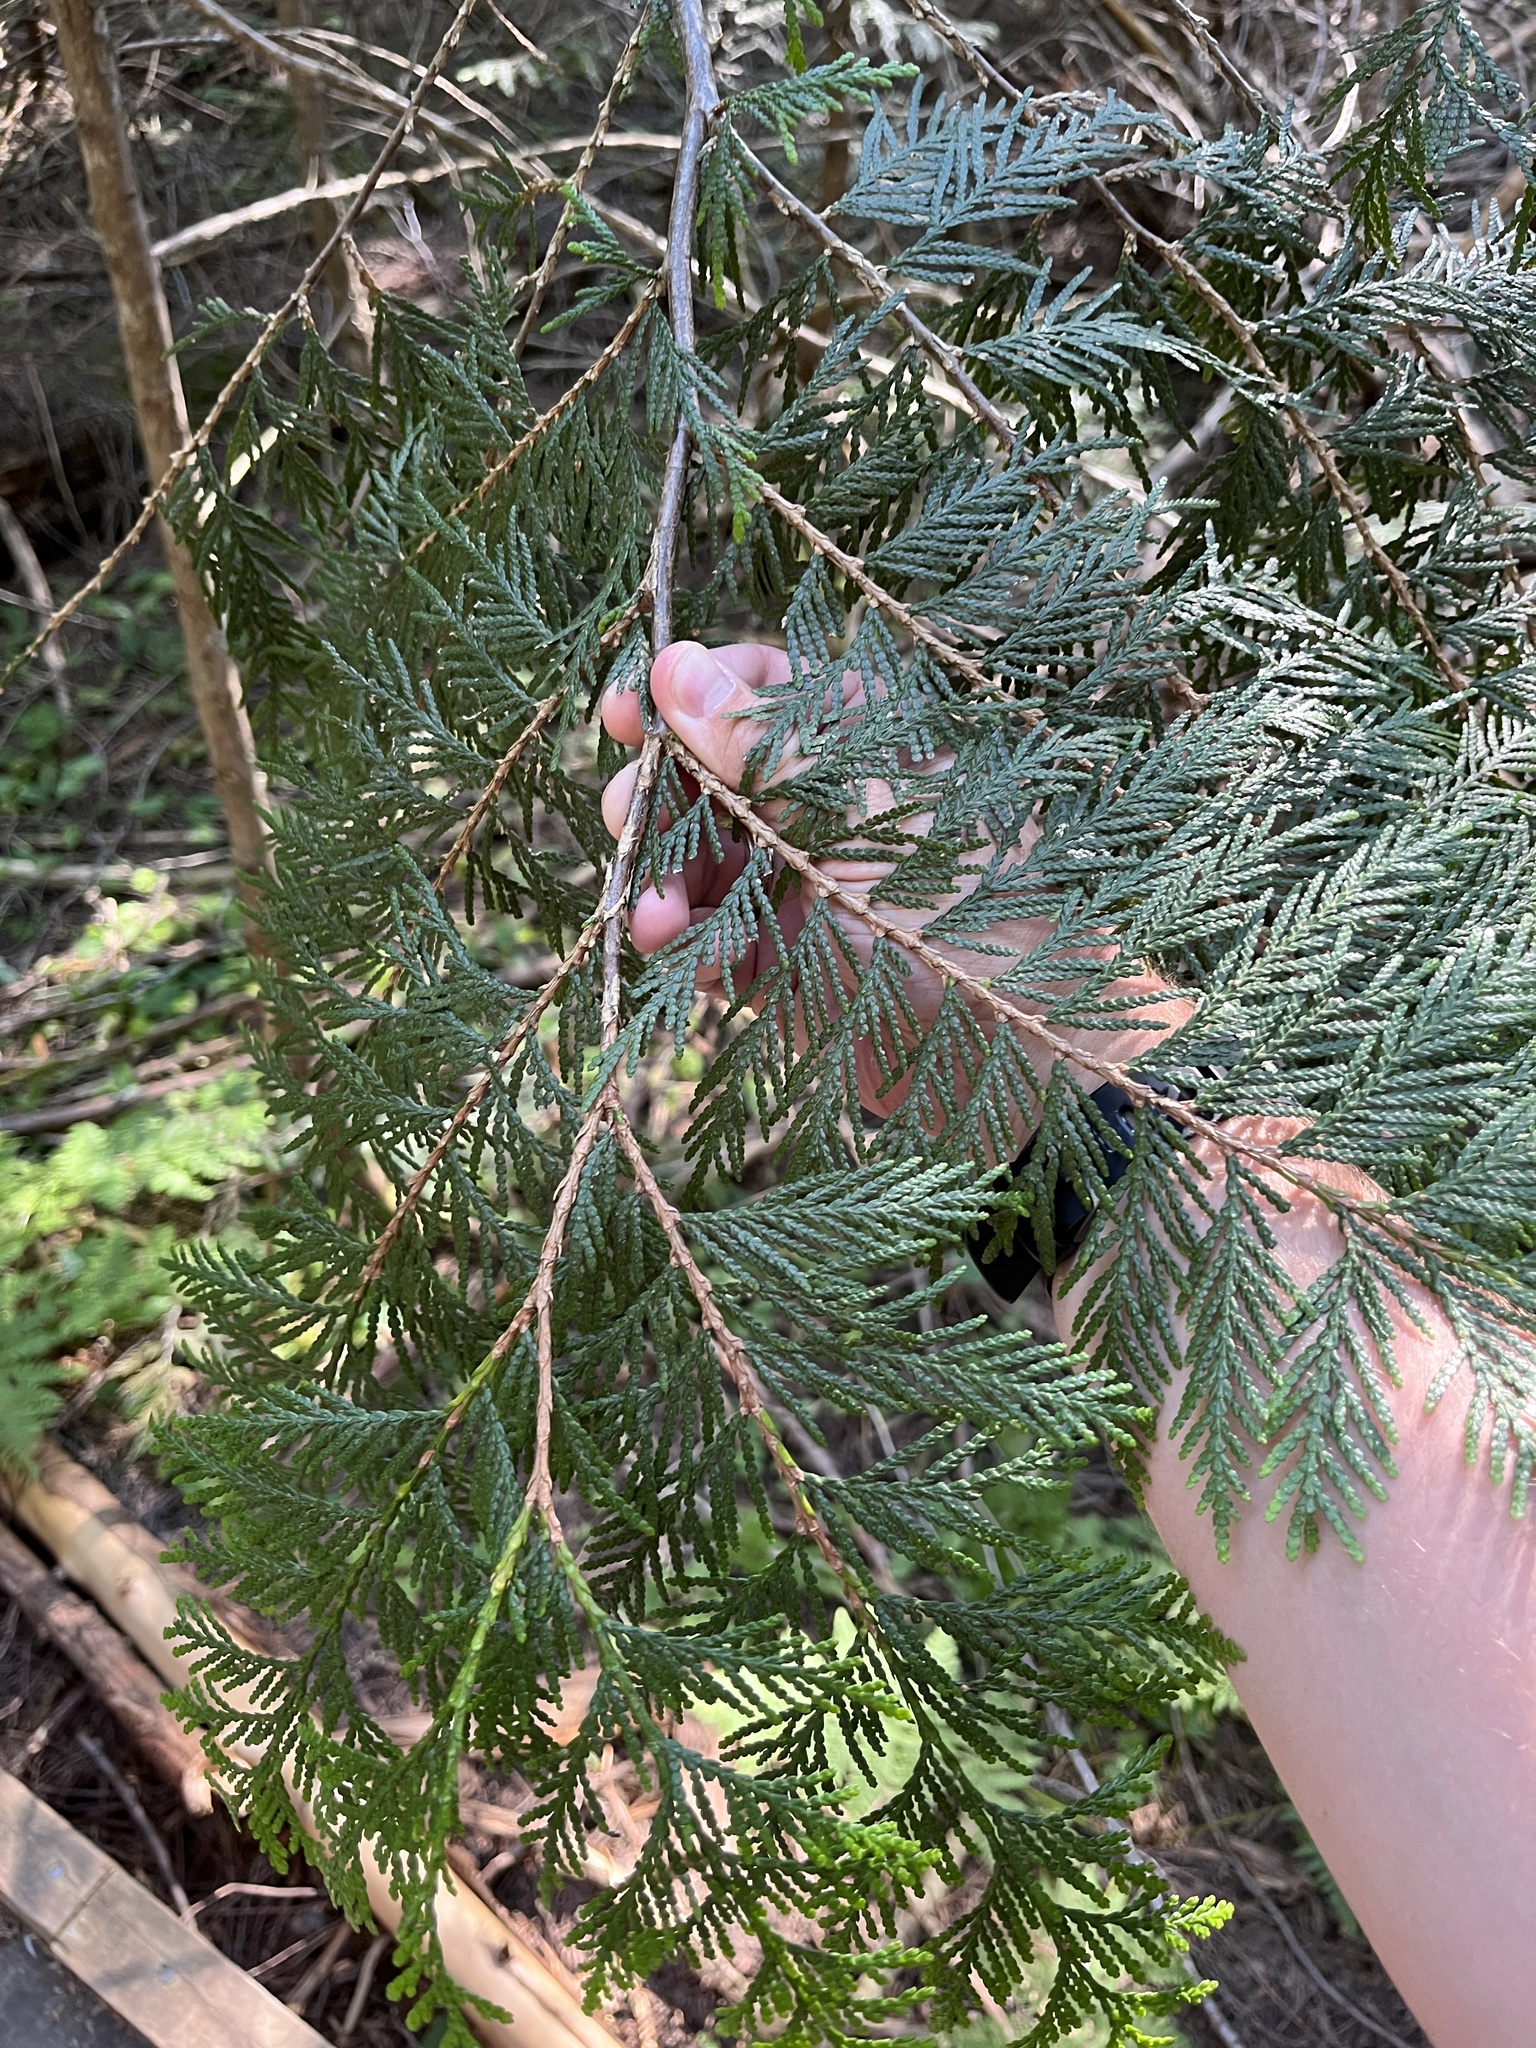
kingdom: Plantae
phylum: Tracheophyta
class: Pinopsida
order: Pinales
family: Cupressaceae
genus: Thuja
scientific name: Thuja plicata
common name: Western red-cedar
